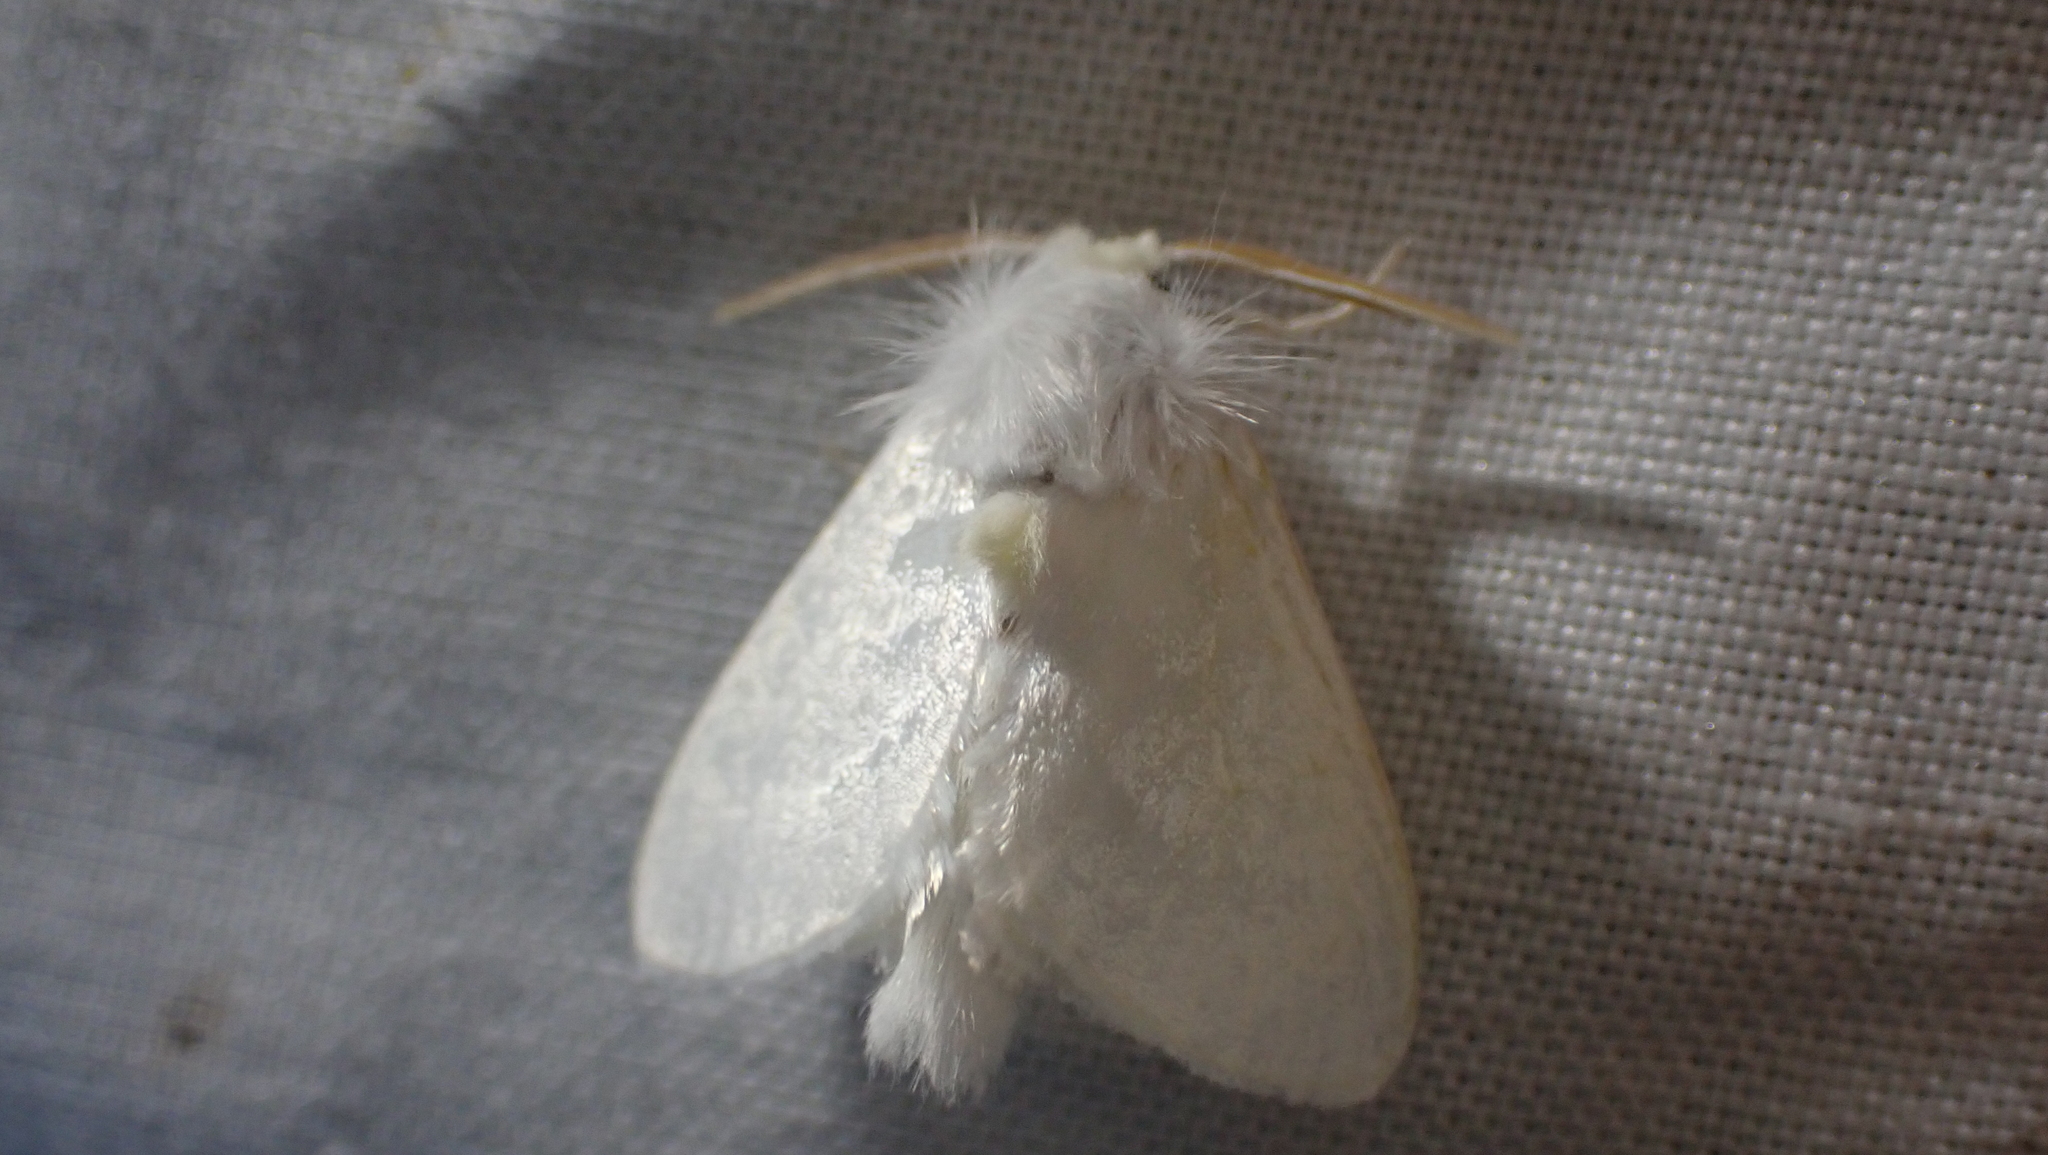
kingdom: Animalia
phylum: Arthropoda
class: Insecta
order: Lepidoptera
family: Megalopygidae
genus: Norape
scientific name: Norape cretata
